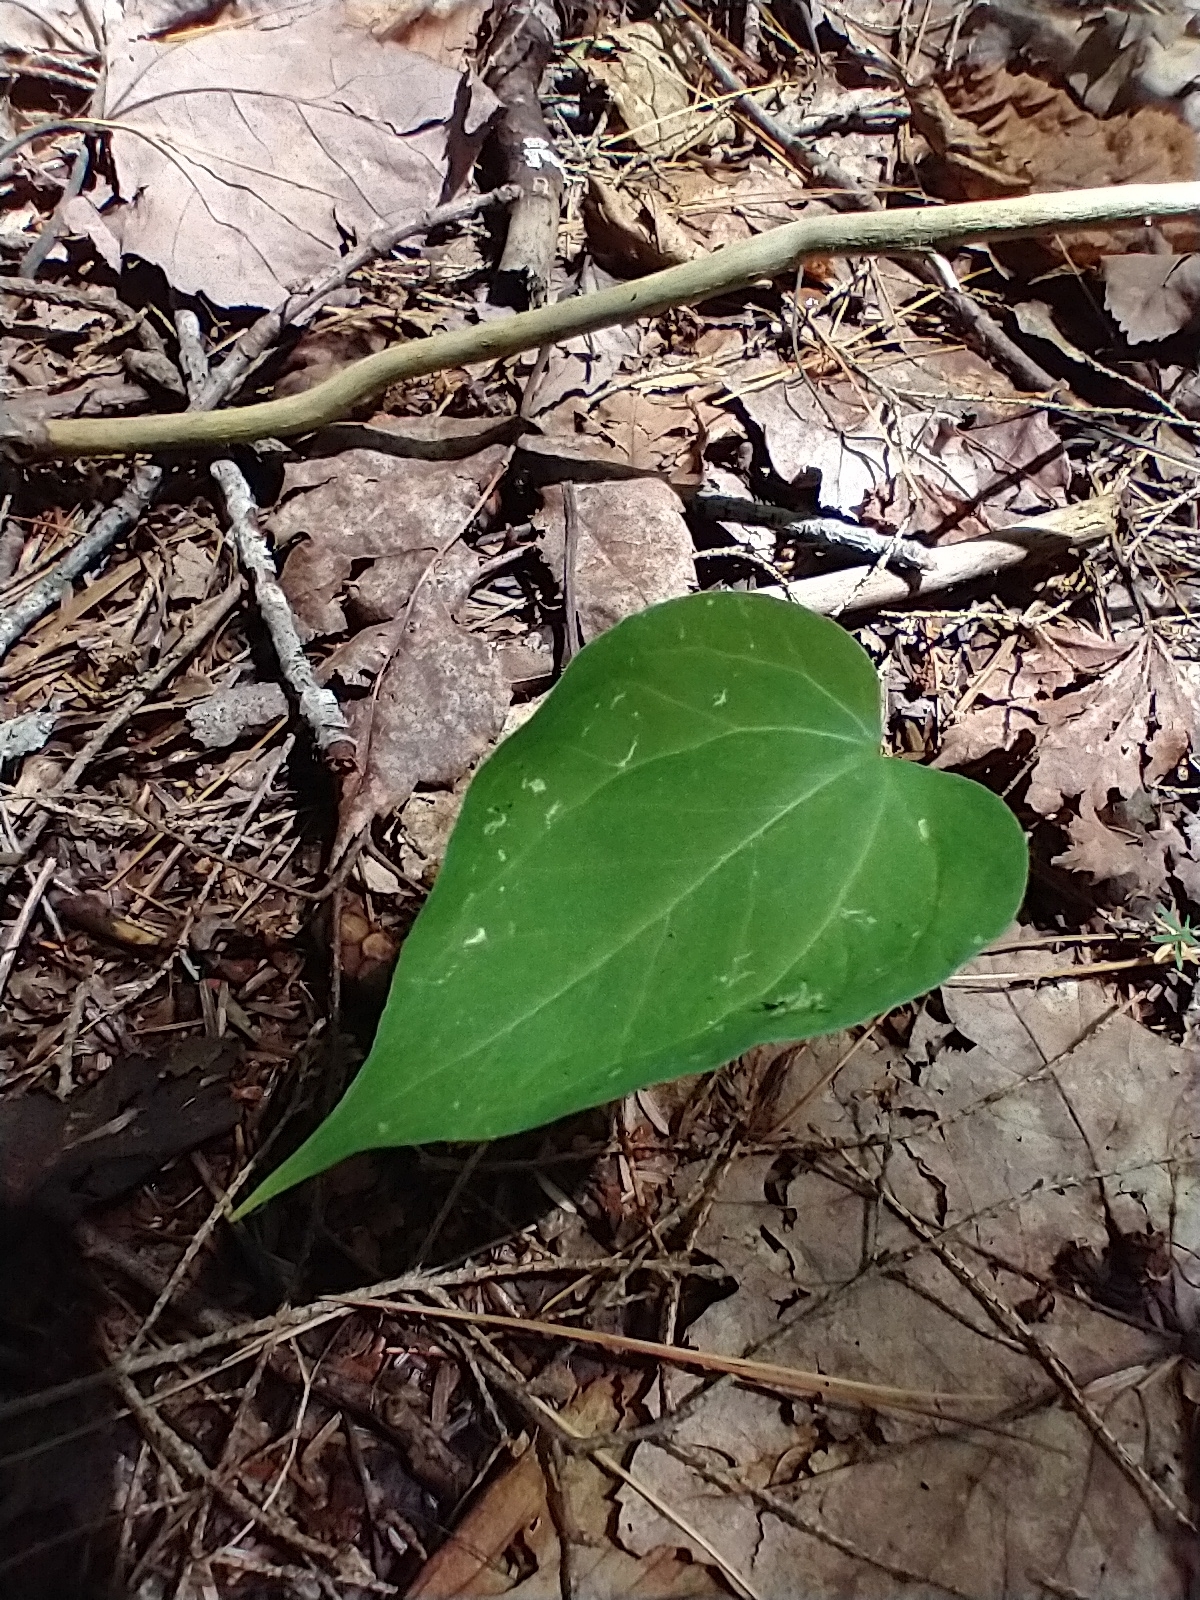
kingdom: Plantae
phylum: Tracheophyta
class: Liliopsida
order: Liliales
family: Melanthiaceae
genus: Trillium
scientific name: Trillium undulatum
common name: Paint trillium
